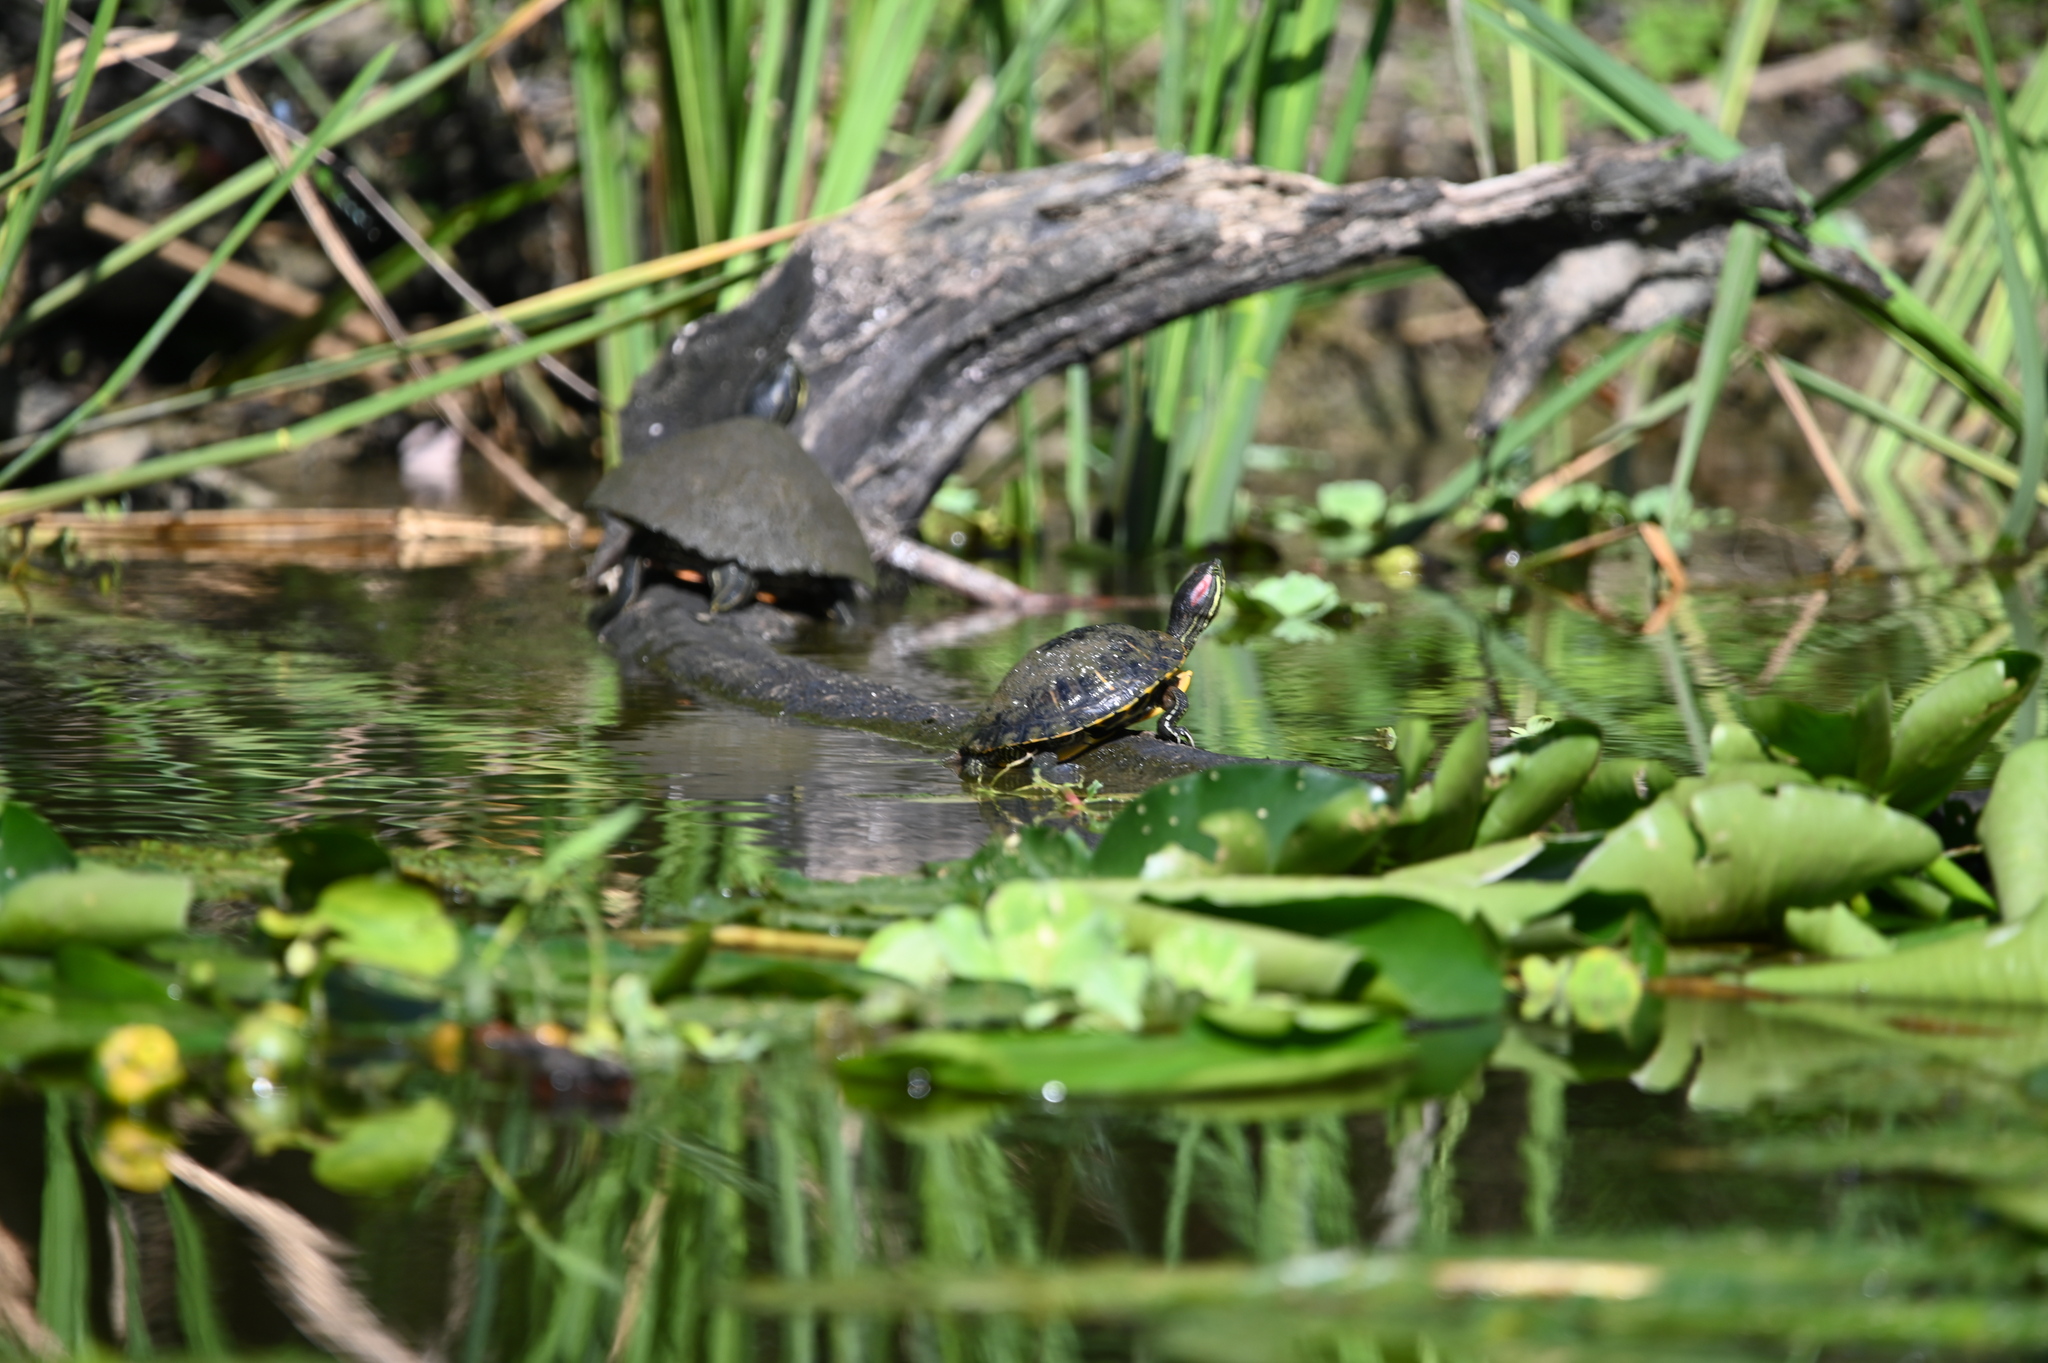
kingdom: Animalia
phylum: Chordata
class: Testudines
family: Emydidae
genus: Trachemys
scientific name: Trachemys scripta
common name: Slider
